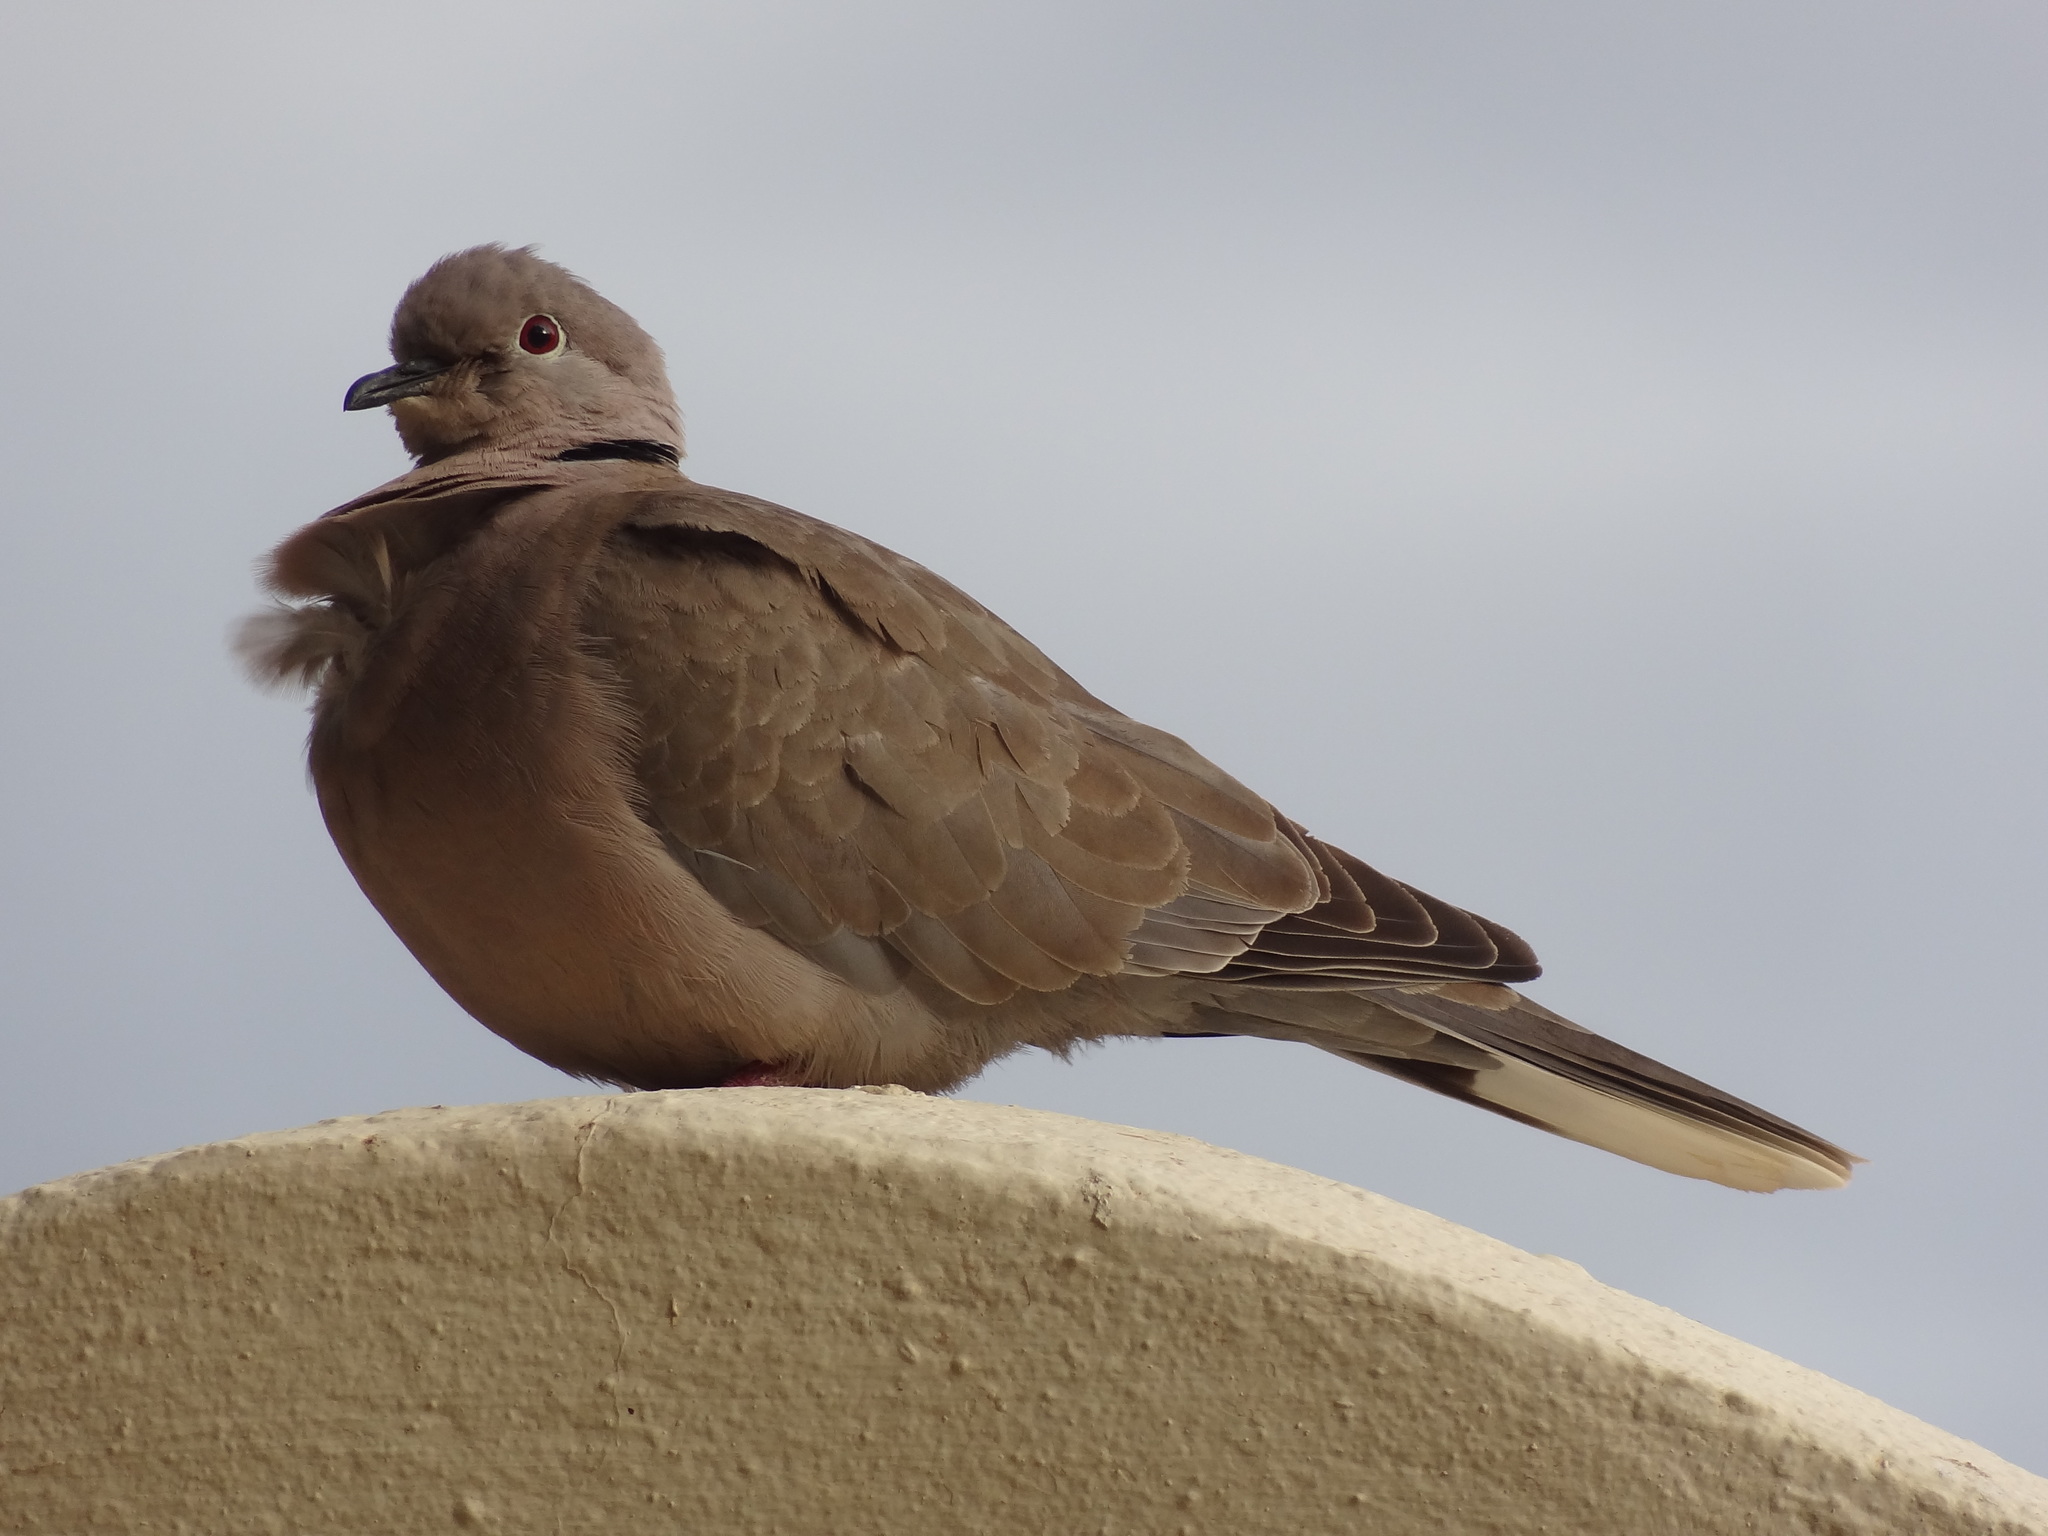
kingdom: Animalia
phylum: Chordata
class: Aves
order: Columbiformes
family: Columbidae
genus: Streptopelia
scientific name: Streptopelia decaocto
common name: Eurasian collared dove
